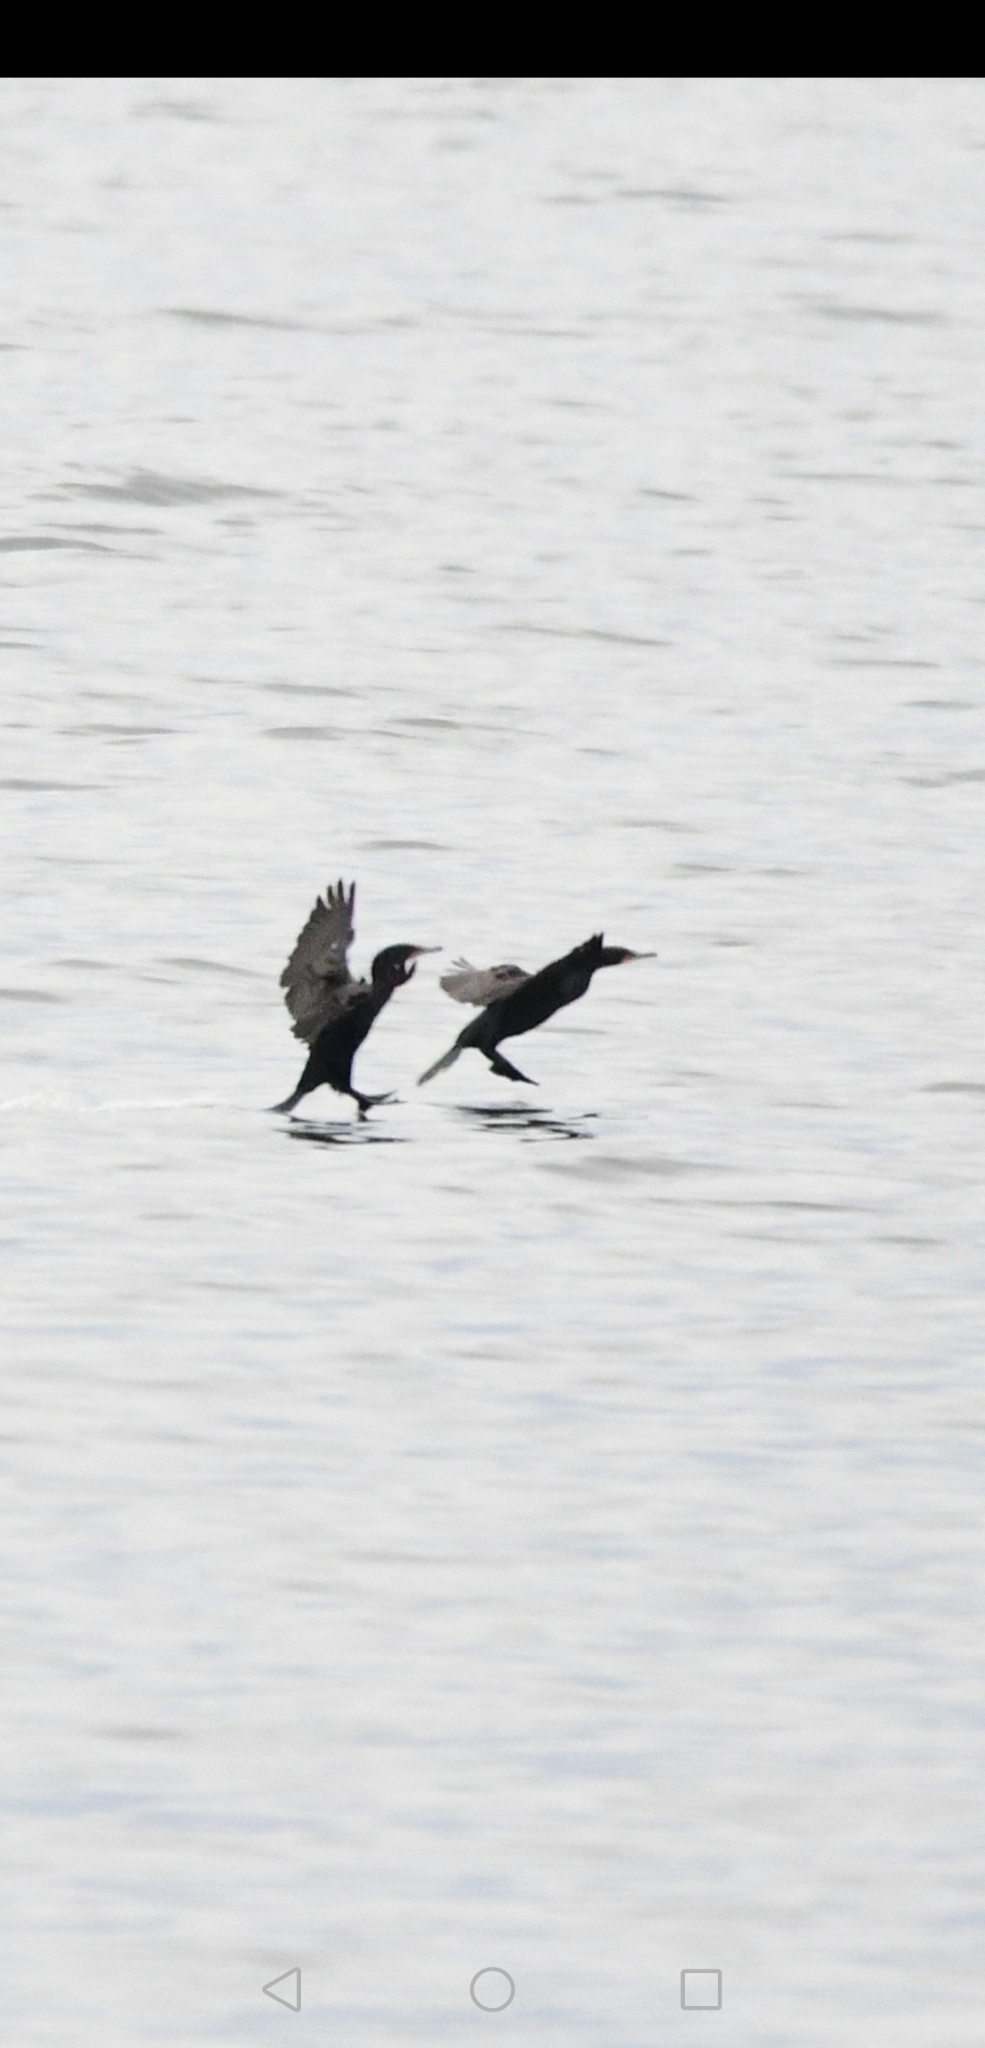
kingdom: Animalia
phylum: Chordata
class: Aves
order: Suliformes
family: Phalacrocoracidae
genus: Phalacrocorax
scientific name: Phalacrocorax auritus
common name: Double-crested cormorant
